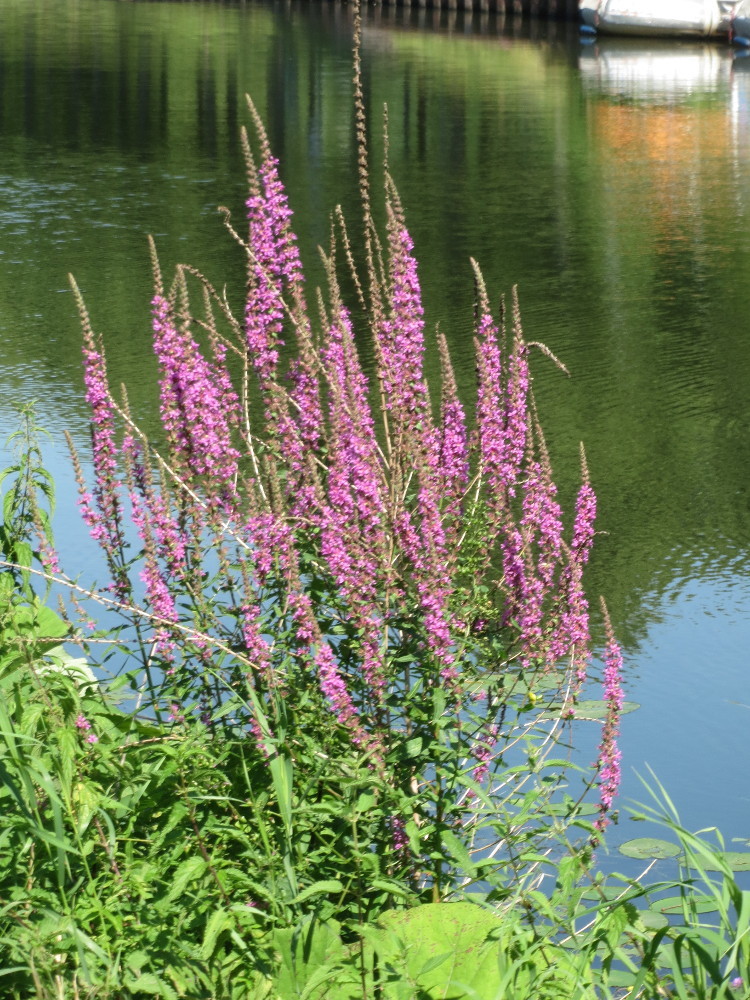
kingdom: Plantae
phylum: Tracheophyta
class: Magnoliopsida
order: Myrtales
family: Lythraceae
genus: Lythrum
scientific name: Lythrum salicaria
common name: Purple loosestrife
